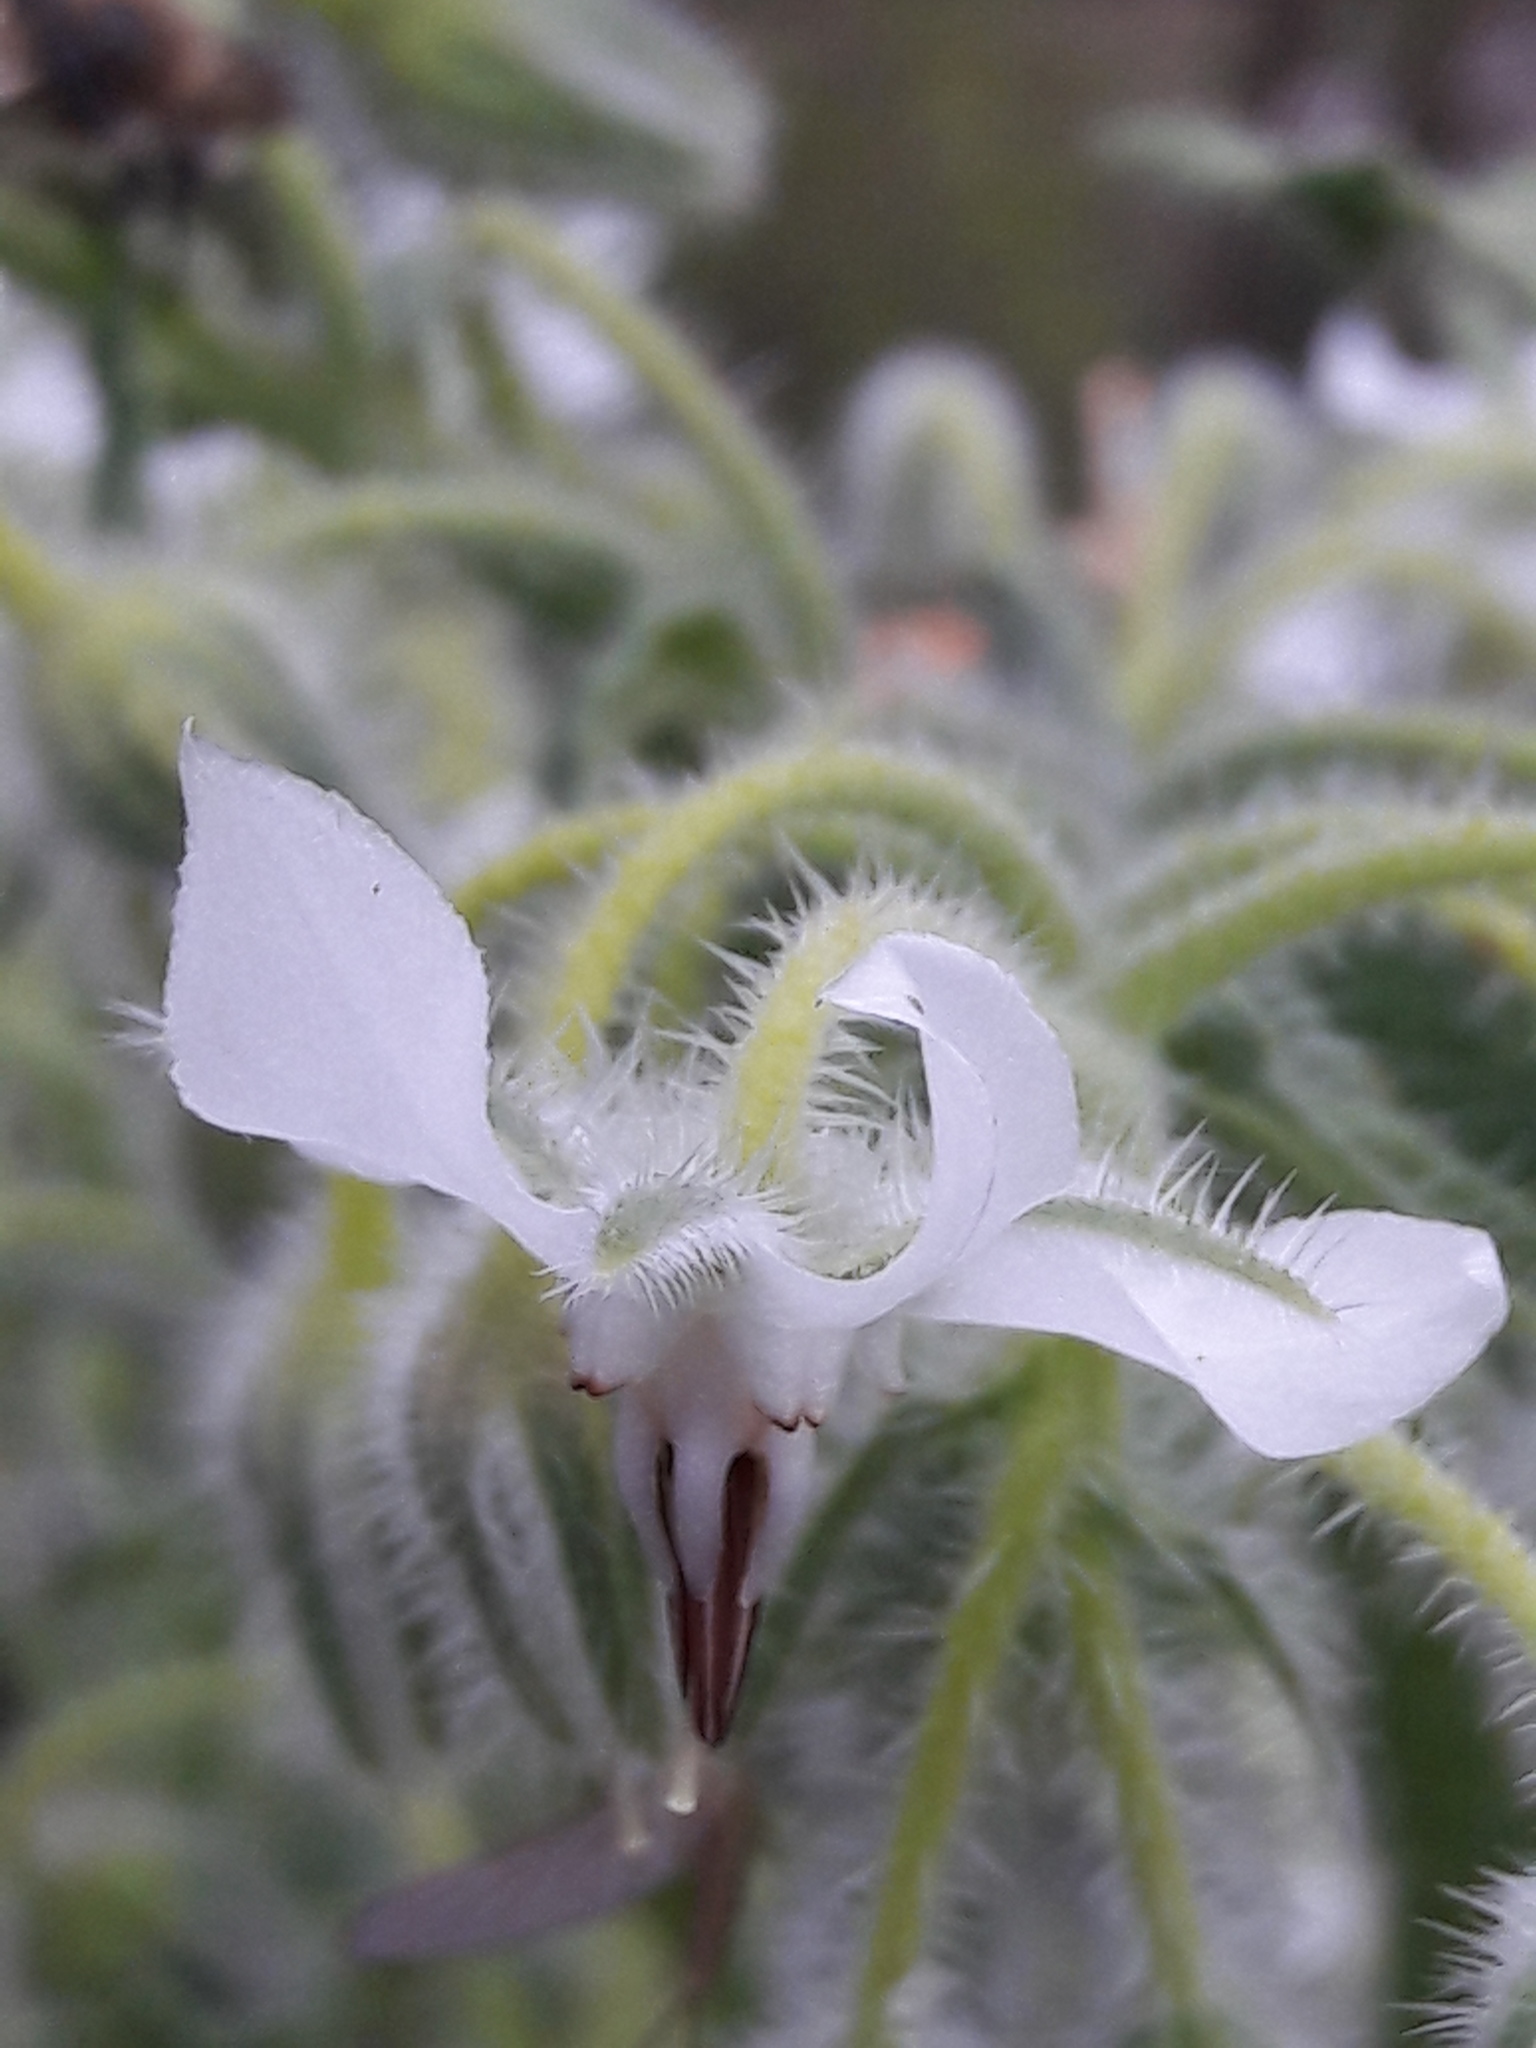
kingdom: Plantae
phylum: Tracheophyta
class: Magnoliopsida
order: Boraginales
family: Boraginaceae
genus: Borago
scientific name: Borago officinalis
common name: Borage
